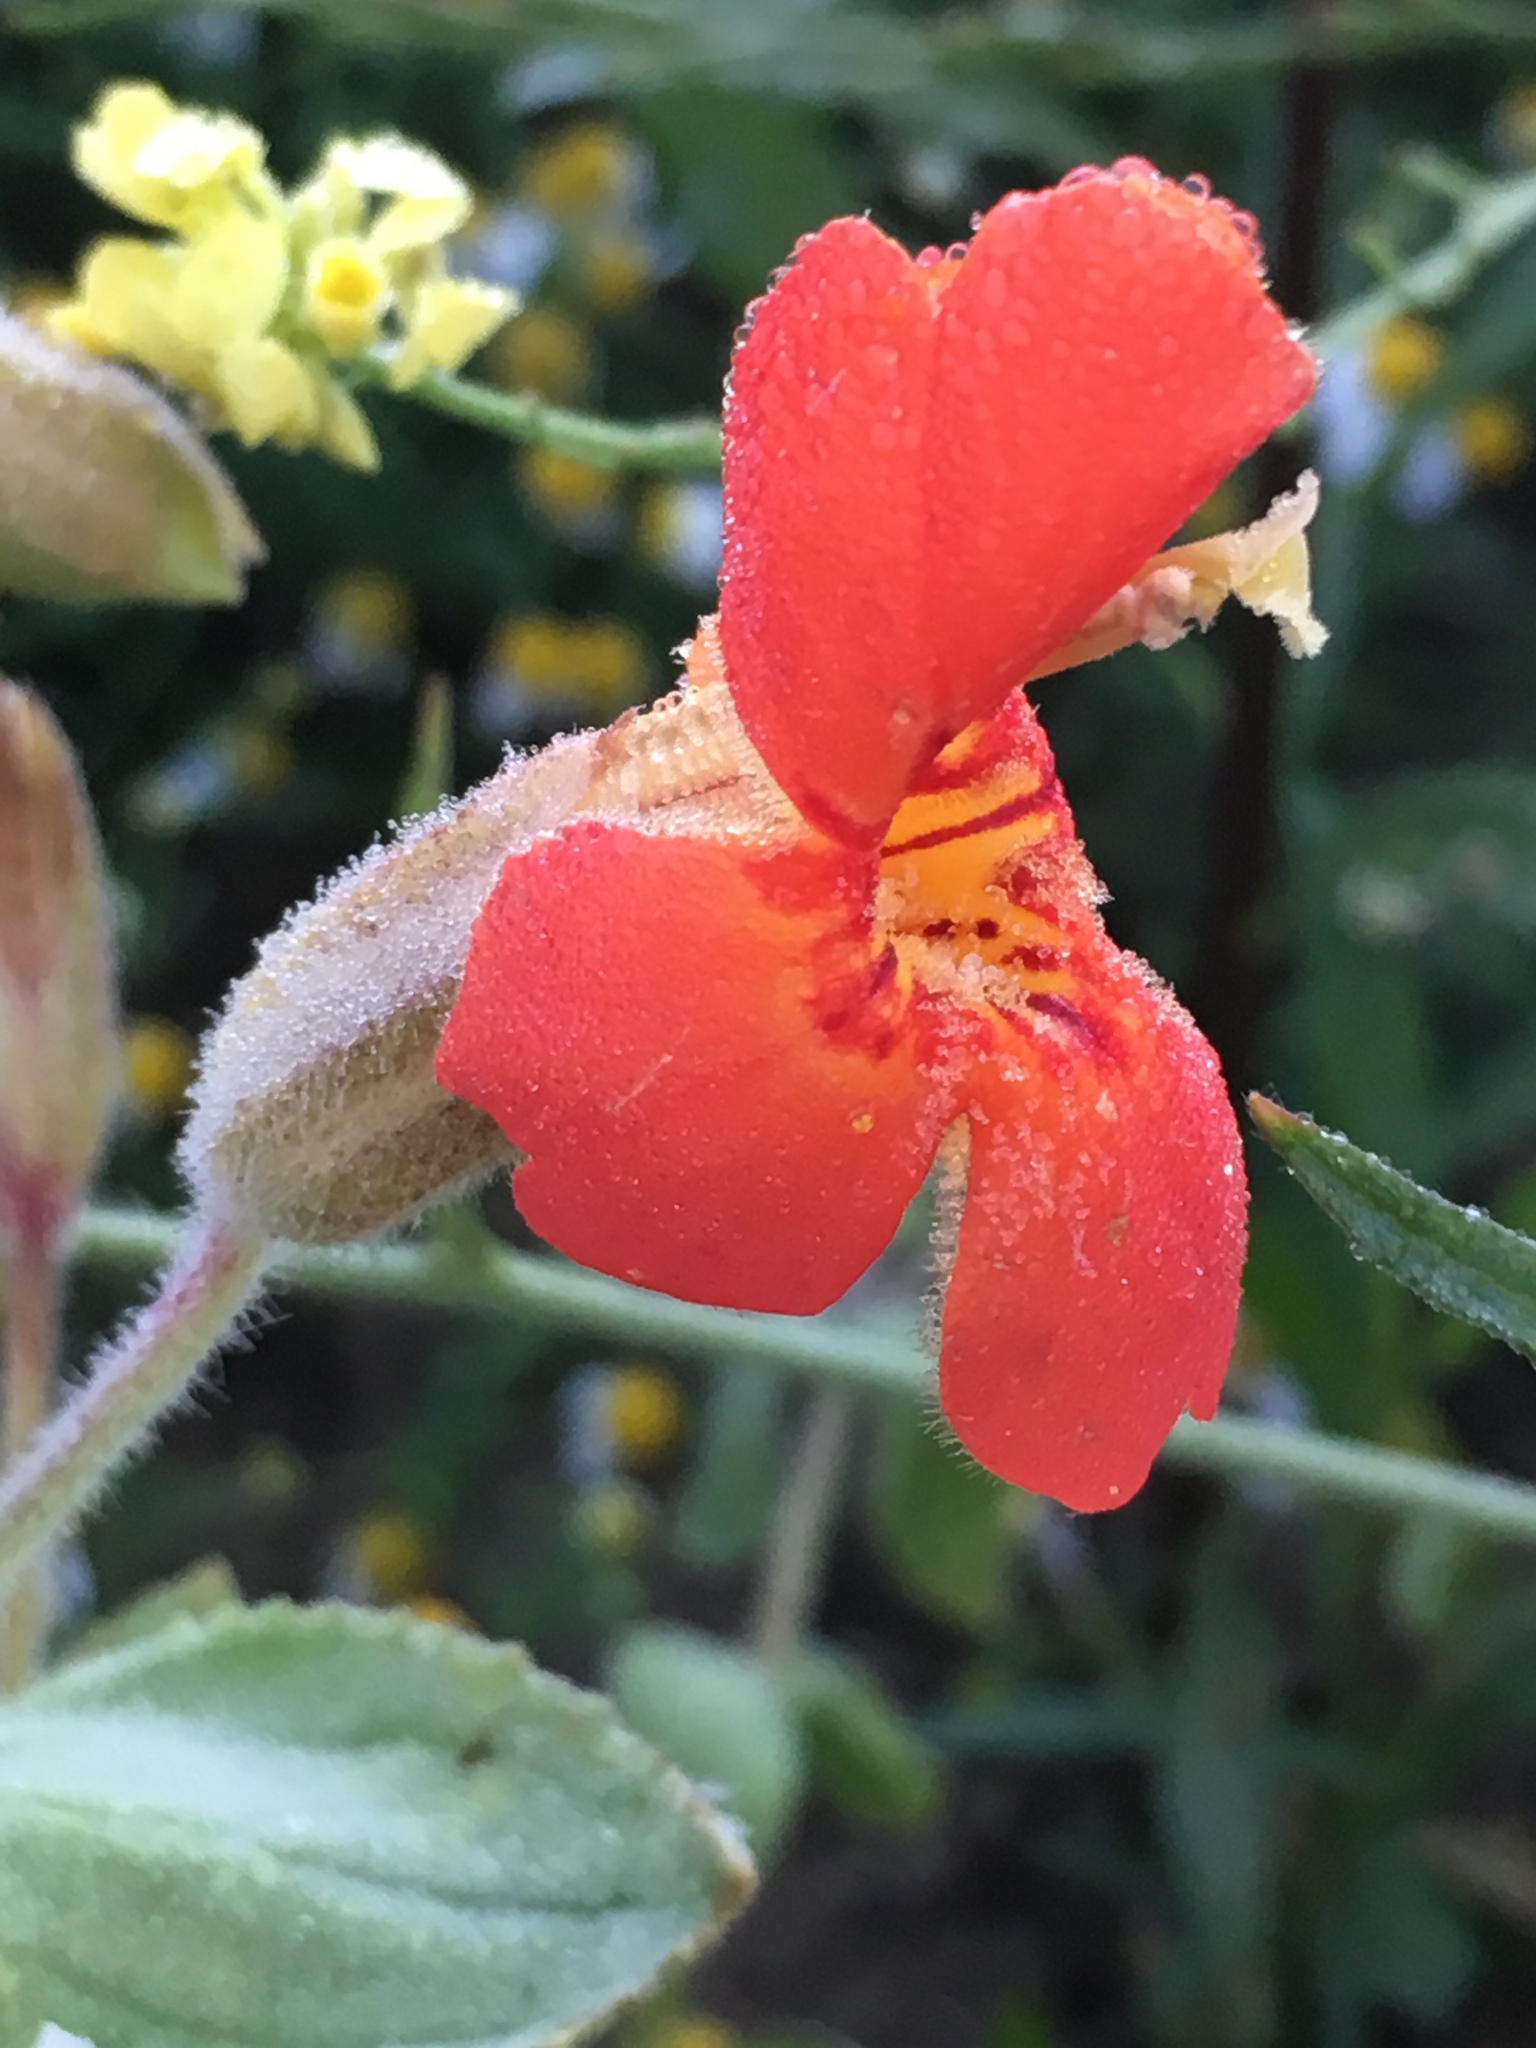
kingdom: Plantae
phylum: Tracheophyta
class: Magnoliopsida
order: Lamiales
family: Phrymaceae
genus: Erythranthe
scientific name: Erythranthe cardinalis
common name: Scarlet monkey-flower
